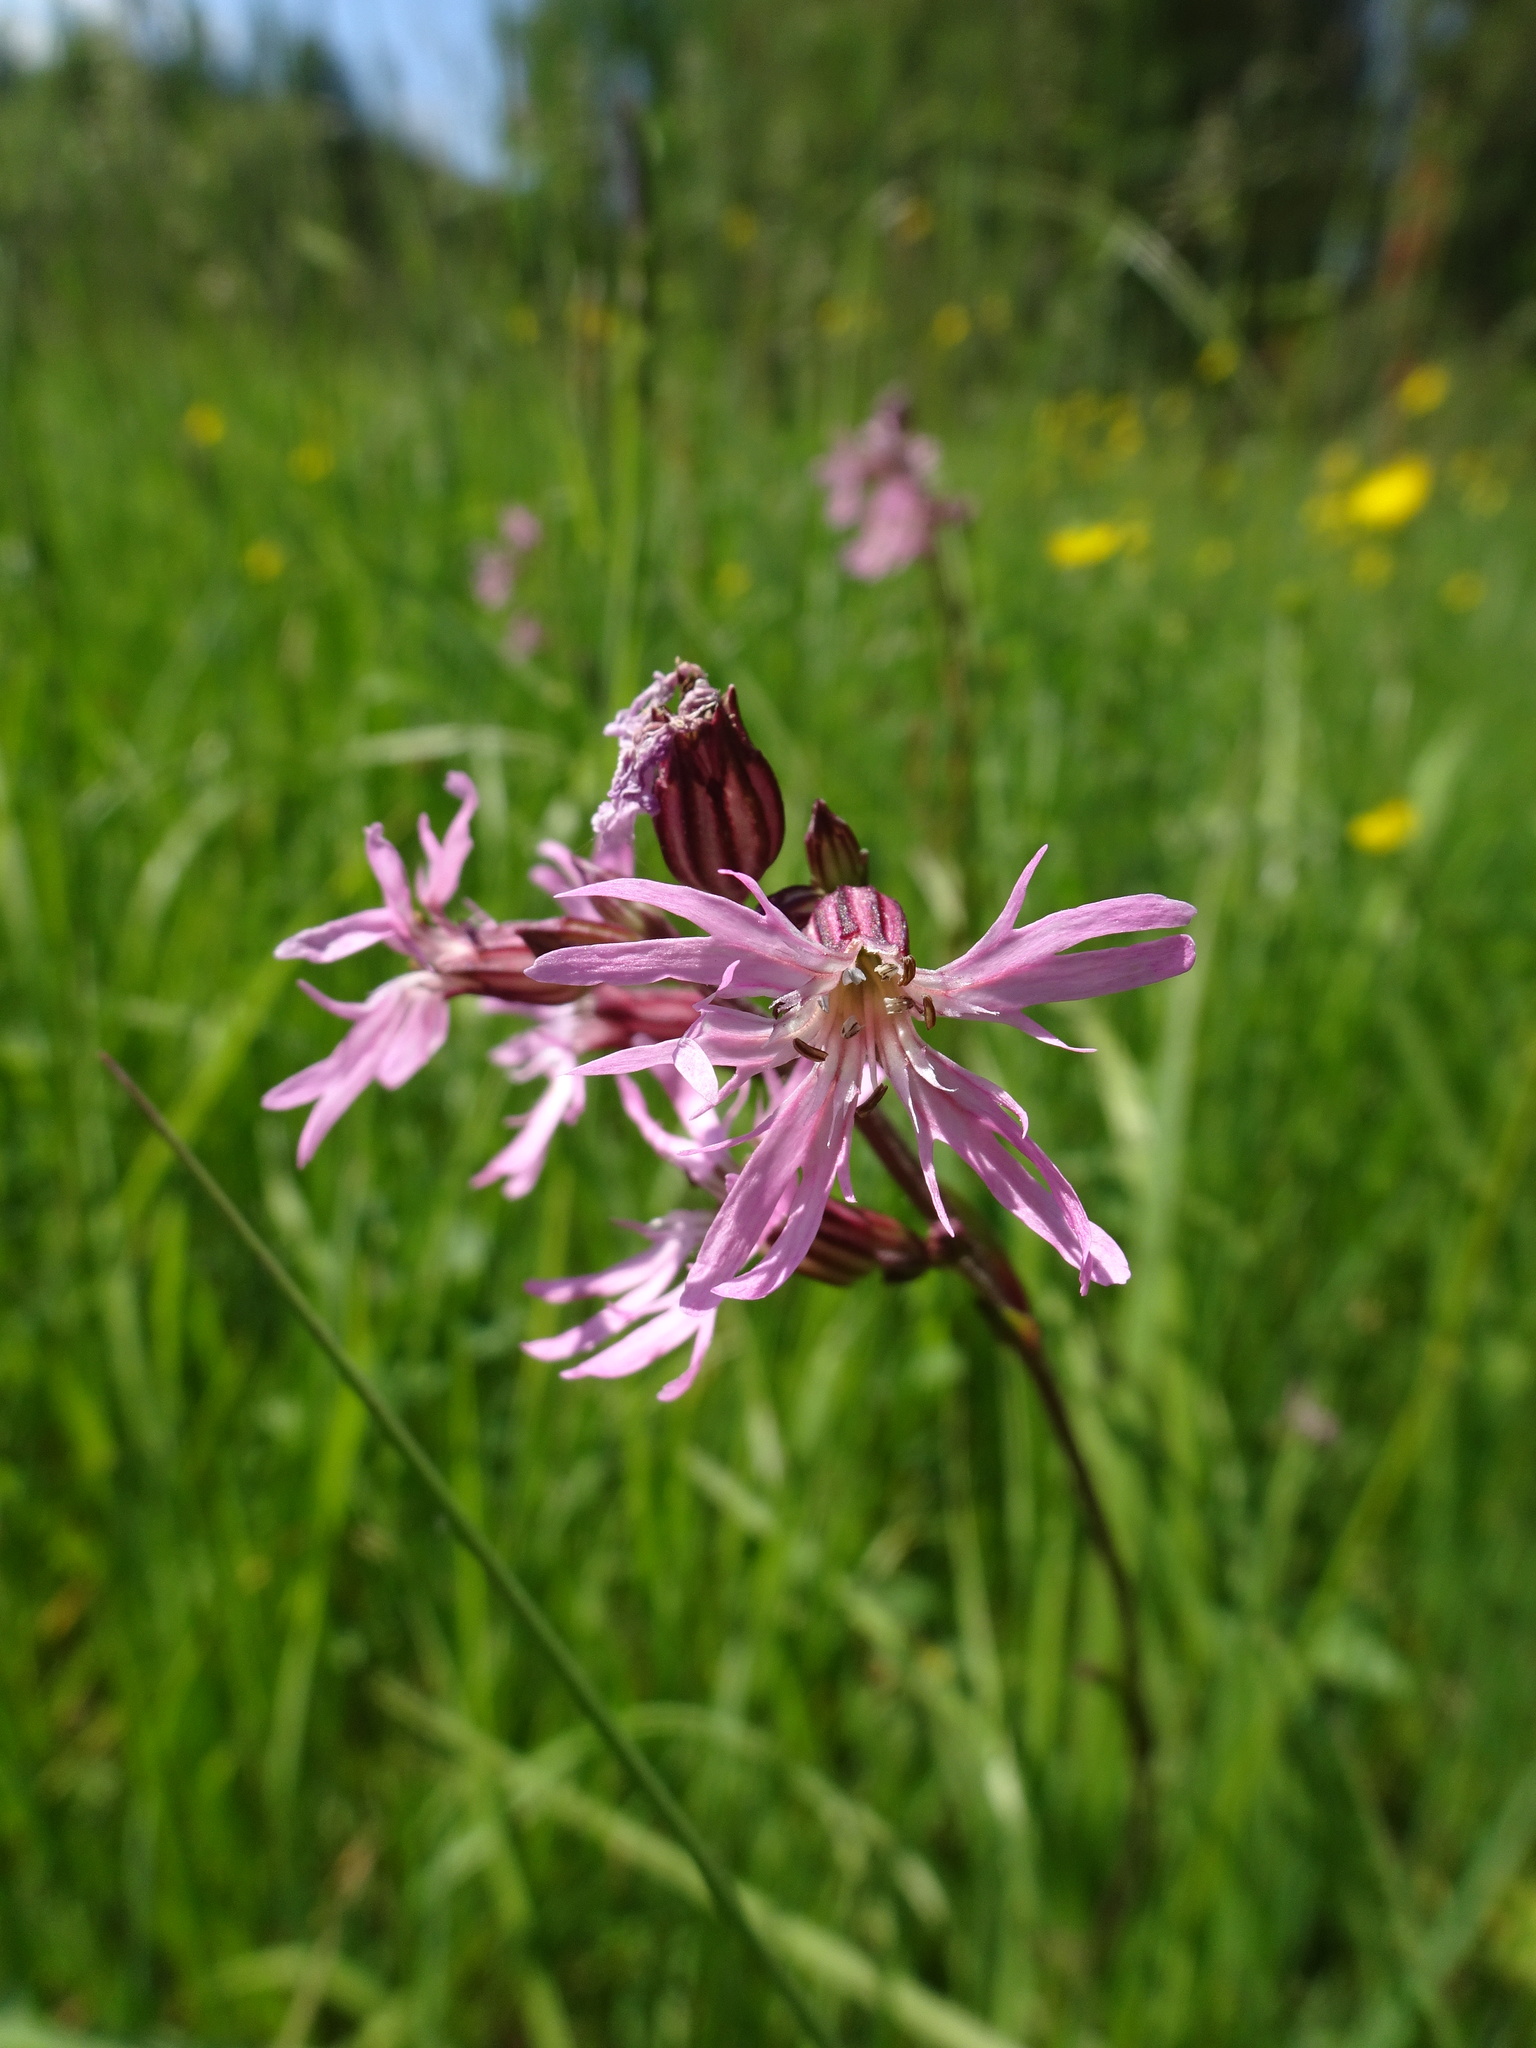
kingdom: Plantae
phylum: Tracheophyta
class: Magnoliopsida
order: Caryophyllales
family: Caryophyllaceae
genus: Silene
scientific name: Silene flos-cuculi
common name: Ragged-robin
